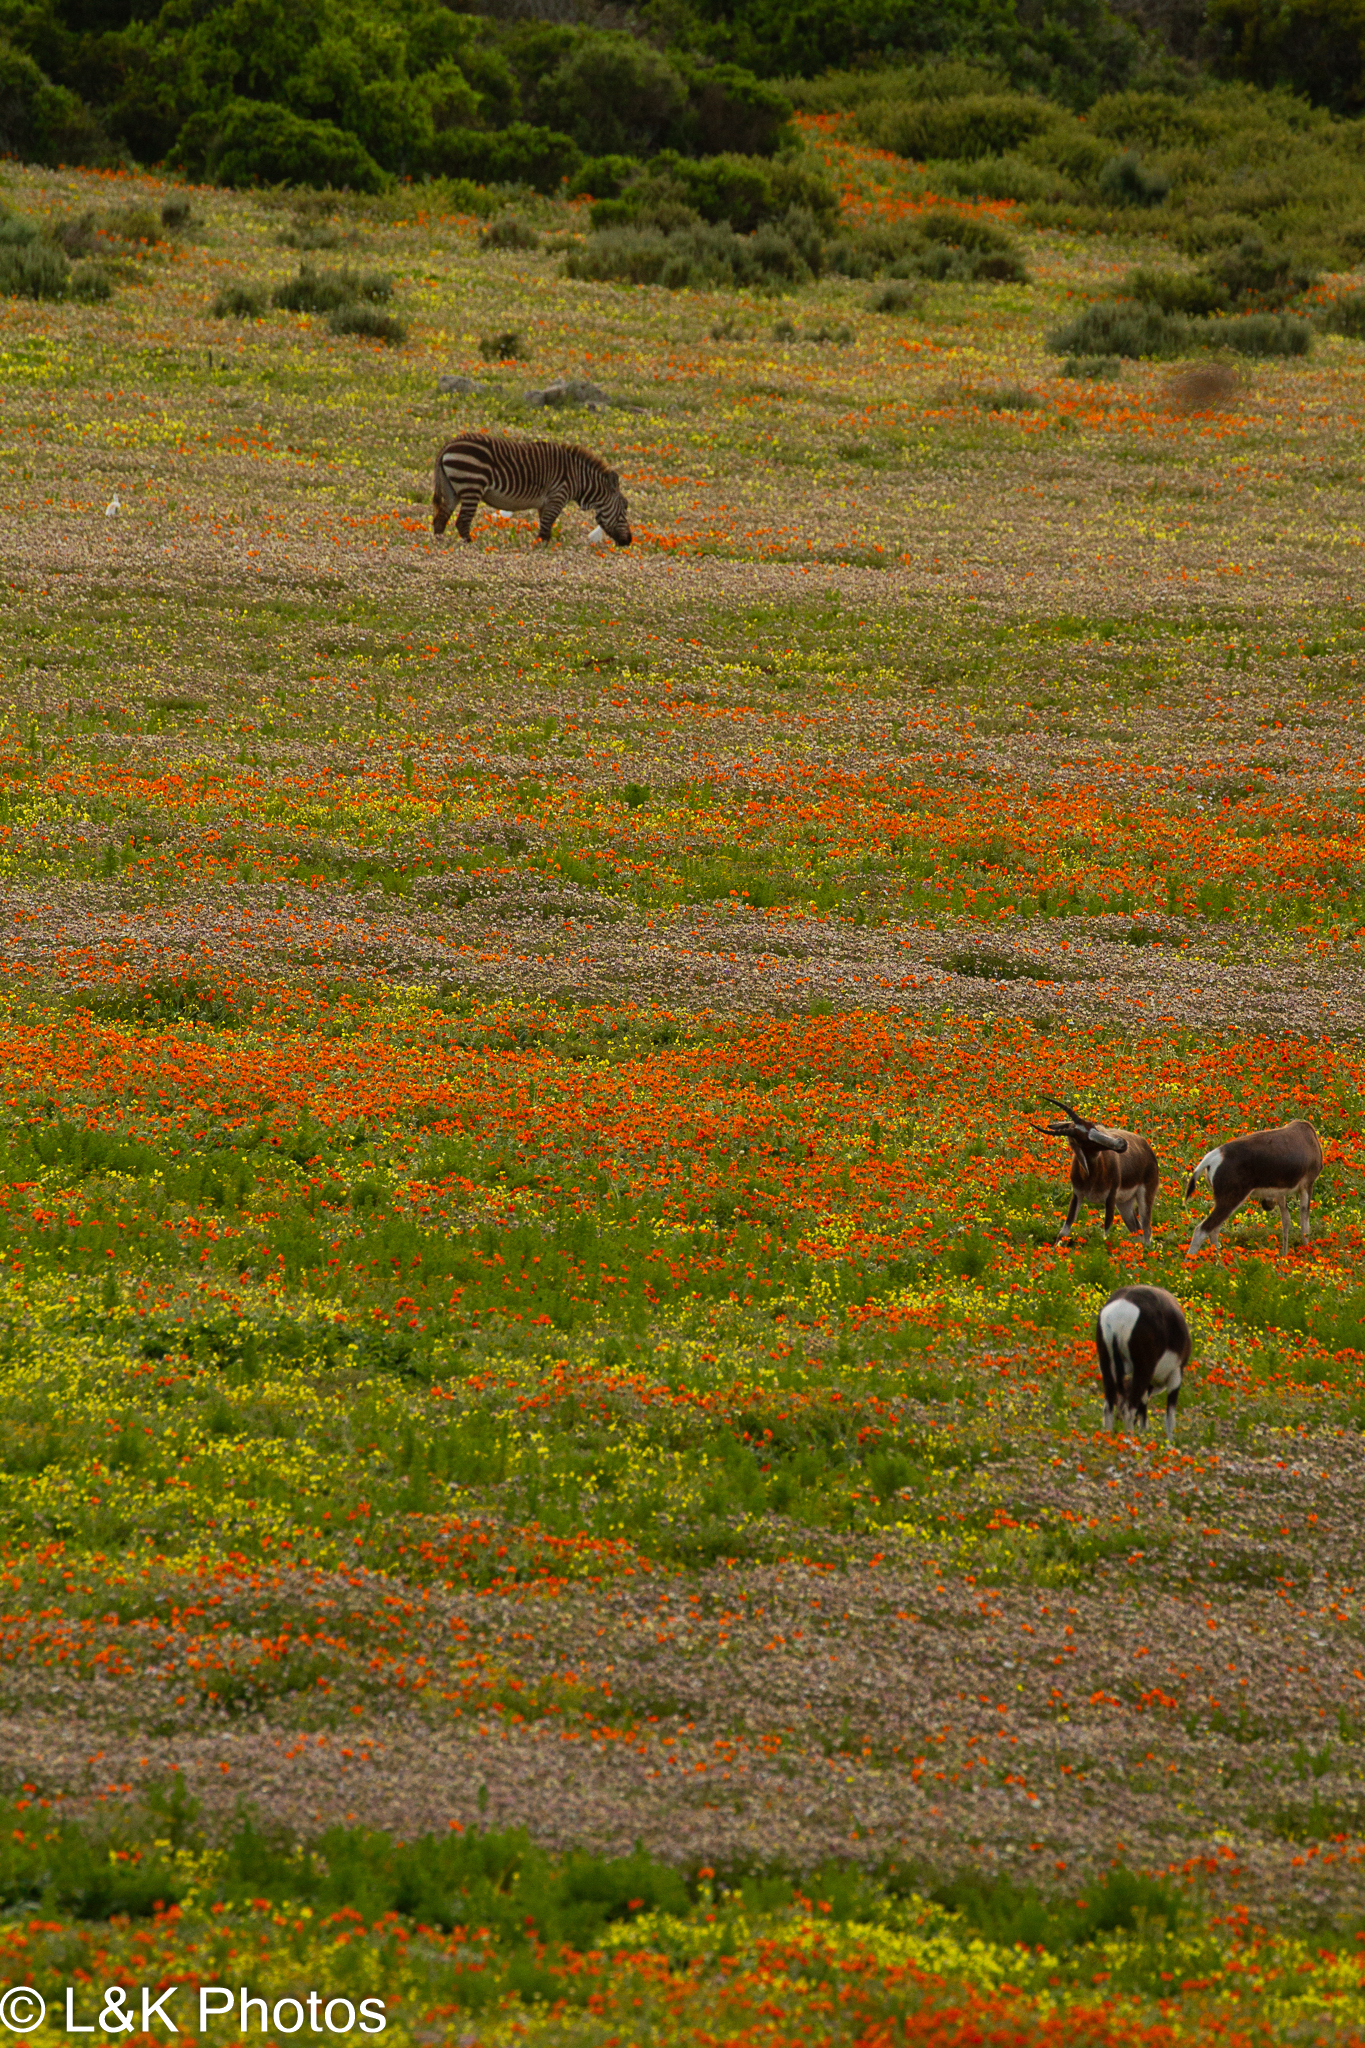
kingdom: Animalia
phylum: Chordata
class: Mammalia
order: Perissodactyla
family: Equidae
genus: Equus
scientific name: Equus zebra
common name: Mountain zebra
